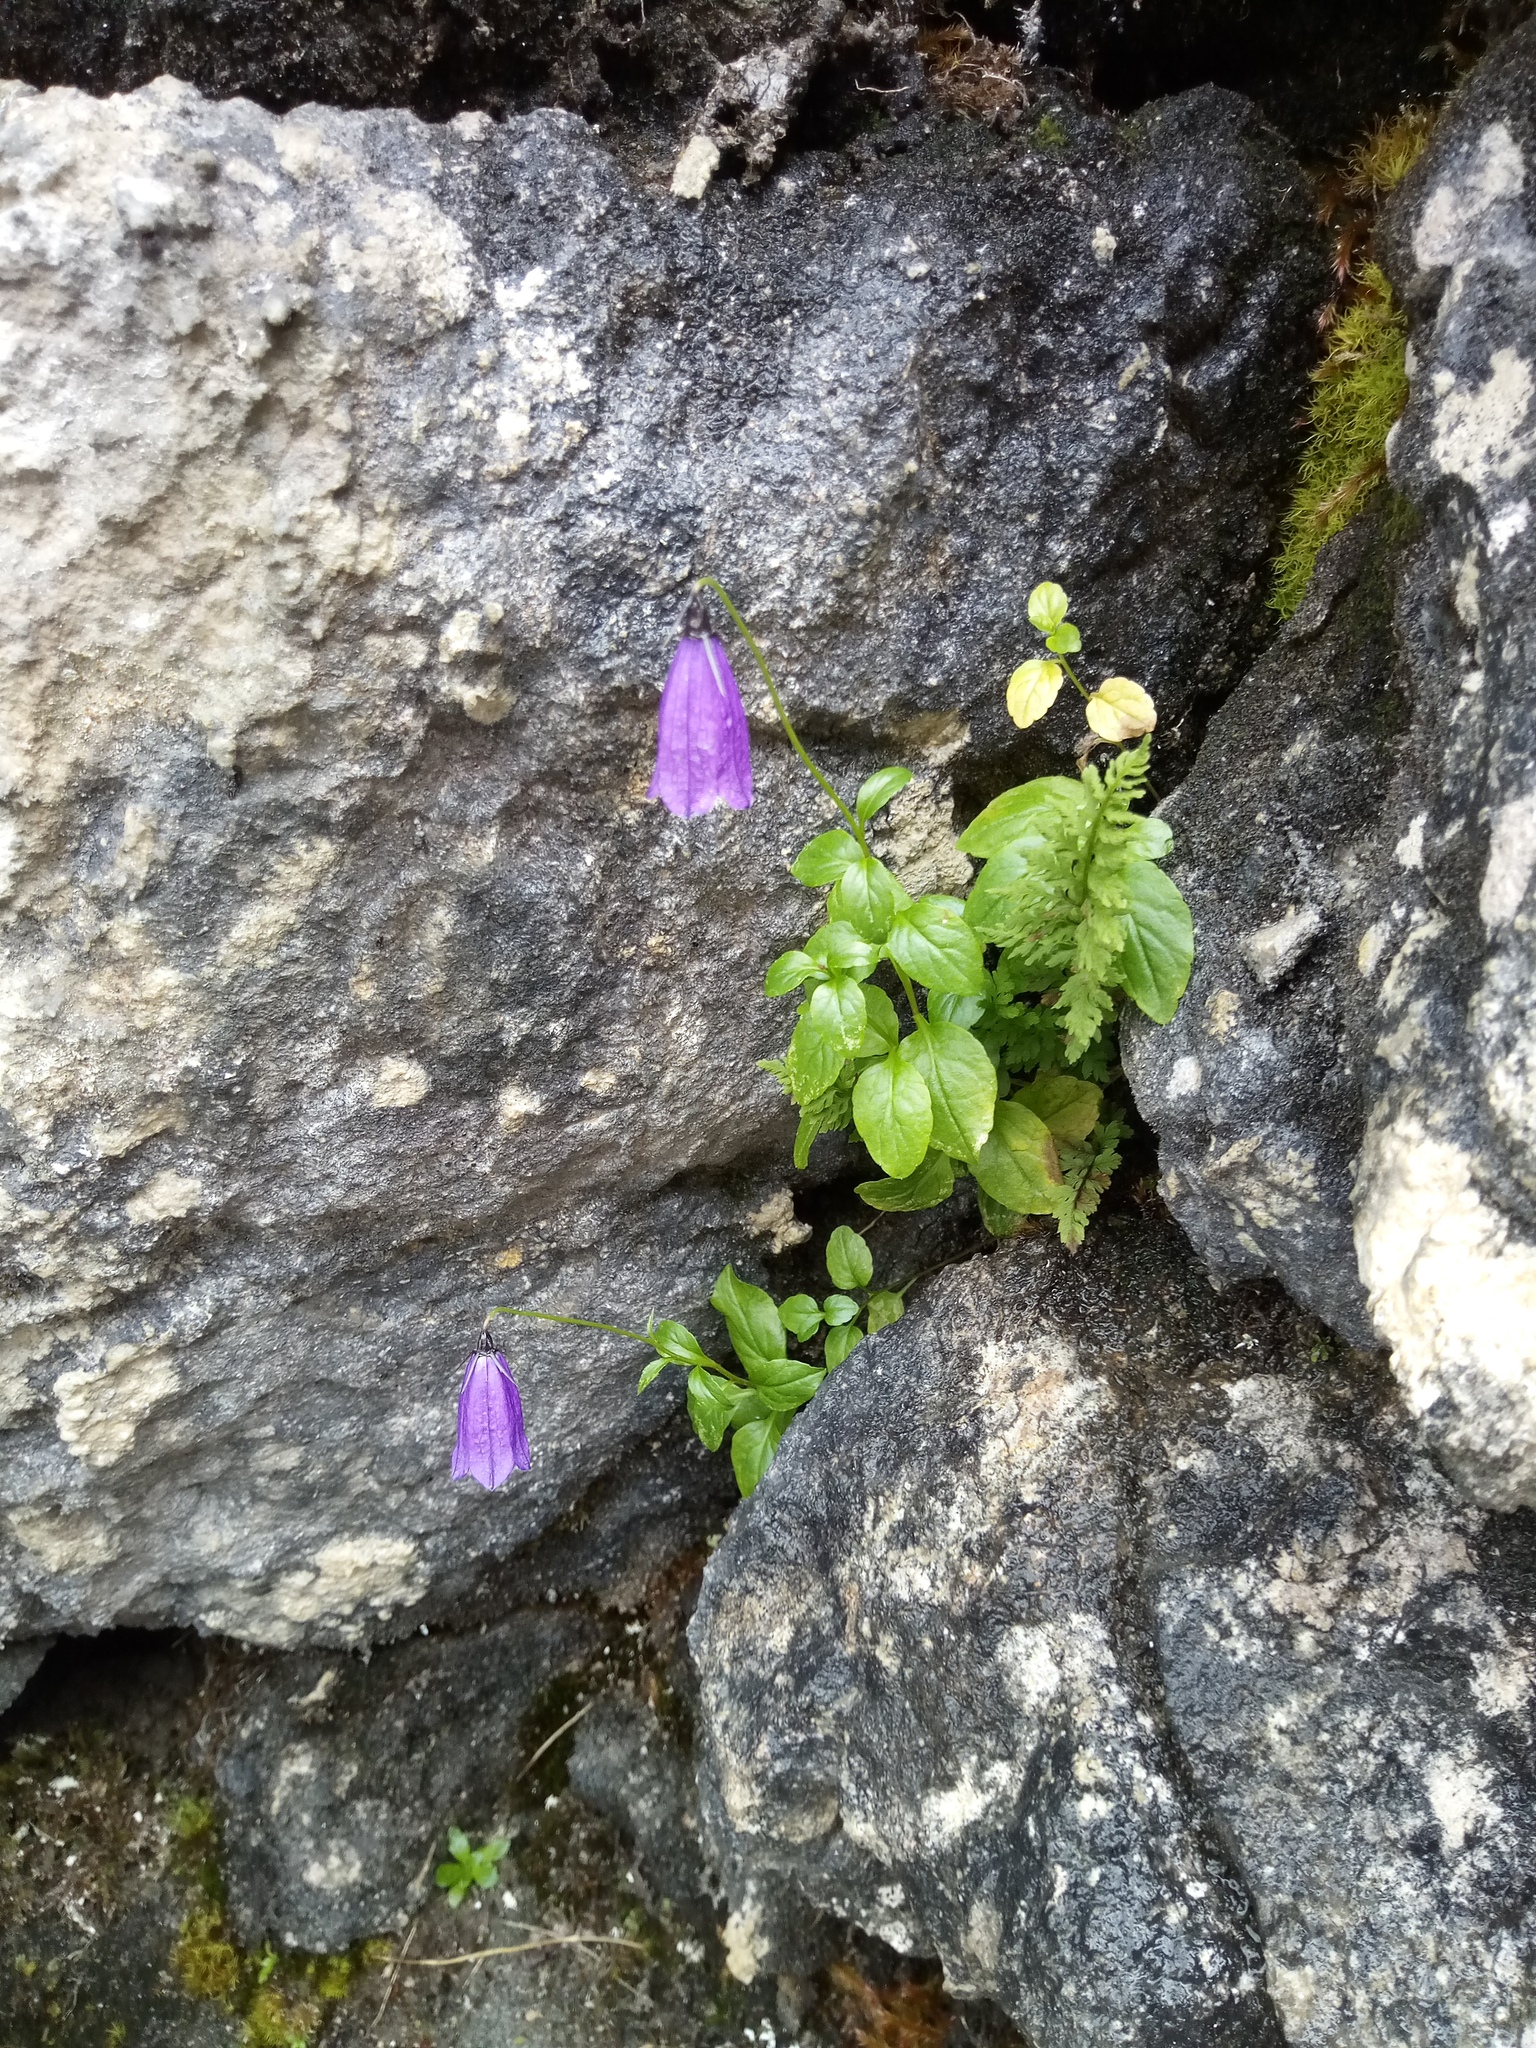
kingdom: Plantae
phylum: Tracheophyta
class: Magnoliopsida
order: Asterales
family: Campanulaceae
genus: Campanula
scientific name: Campanula pulla
